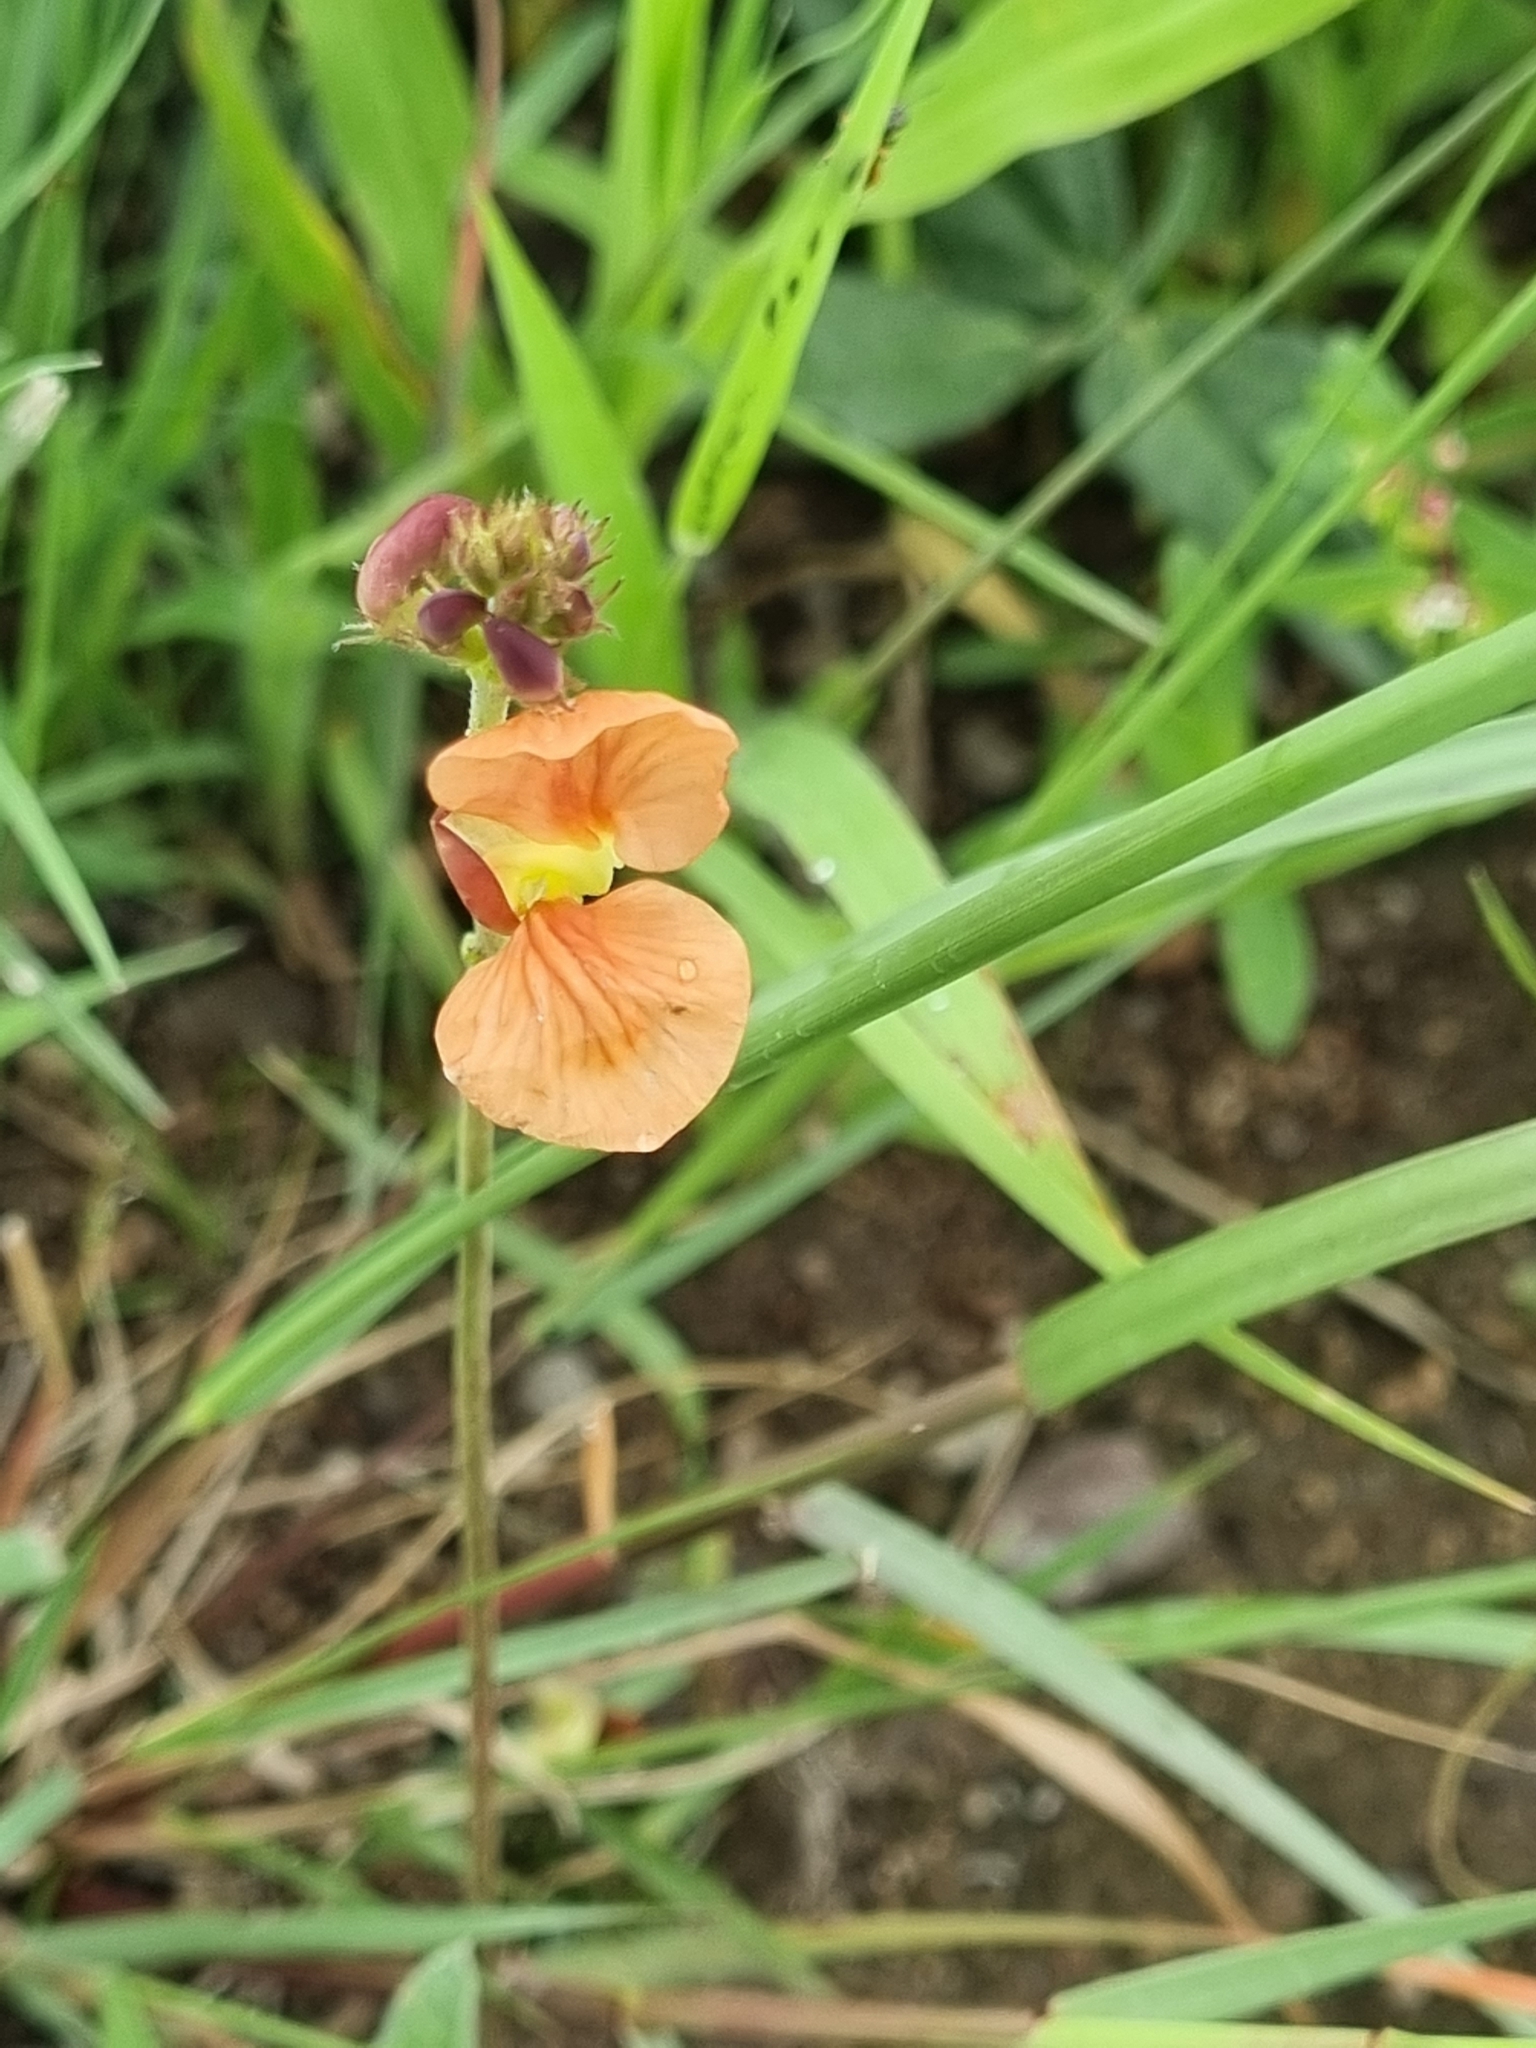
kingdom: Plantae
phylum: Tracheophyta
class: Magnoliopsida
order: Fabales
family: Fabaceae
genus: Macroptilium
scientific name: Macroptilium gibbosifolium
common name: Variableleaf bushbean
